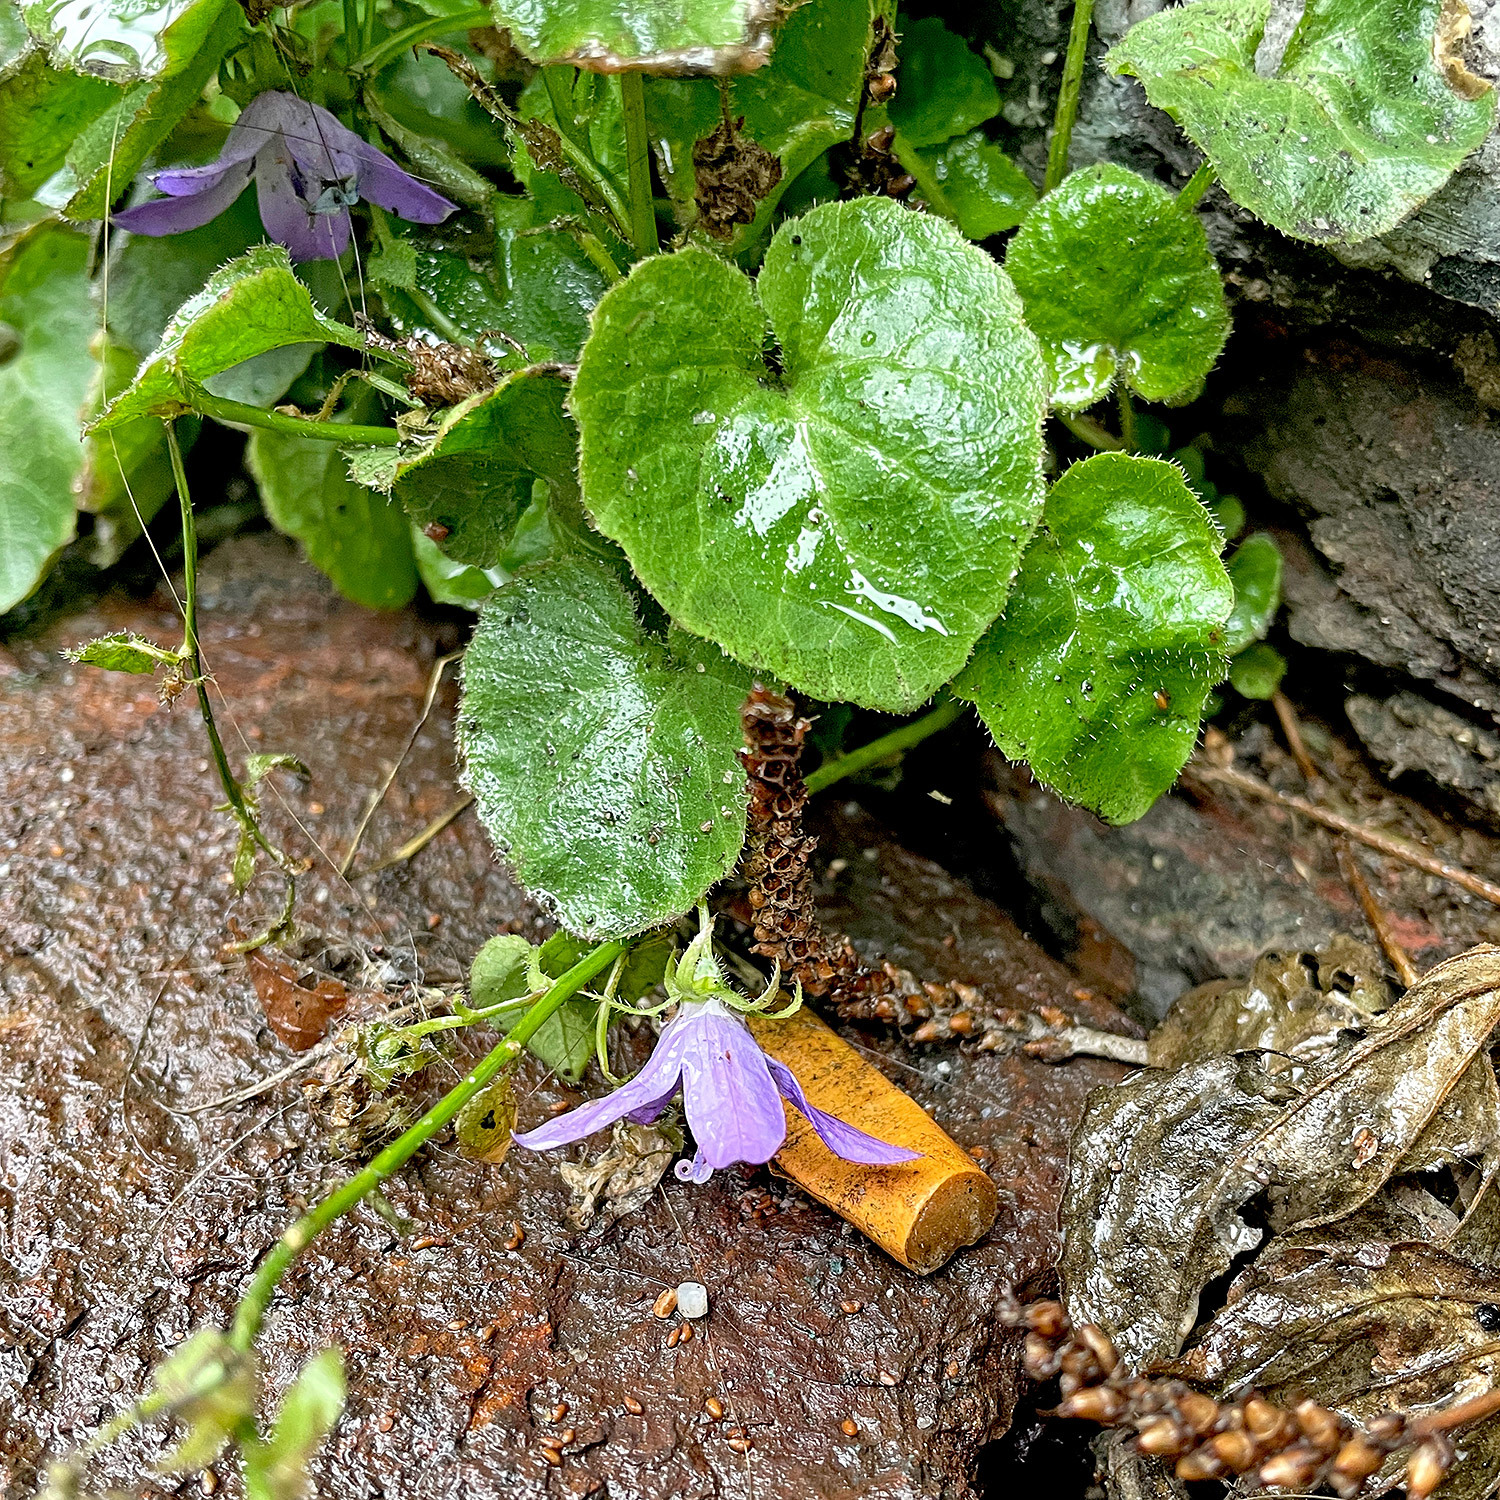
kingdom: Plantae
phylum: Tracheophyta
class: Magnoliopsida
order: Asterales
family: Campanulaceae
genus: Campanula
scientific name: Campanula poscharskyana
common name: Trailing bellflower
